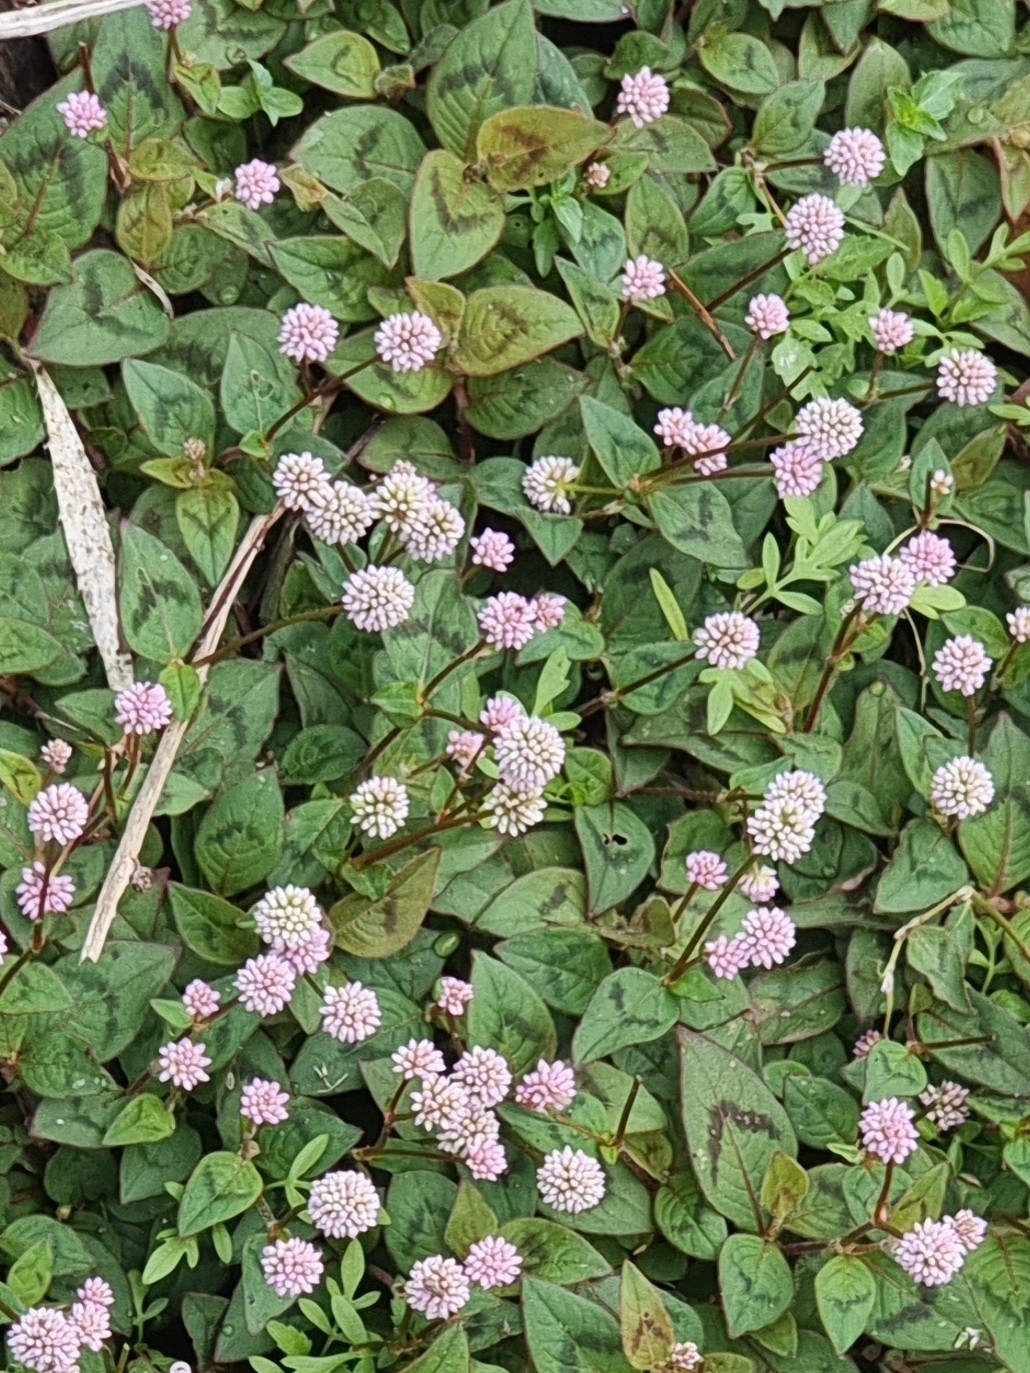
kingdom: Plantae
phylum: Tracheophyta
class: Magnoliopsida
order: Caryophyllales
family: Polygonaceae
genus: Persicaria
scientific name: Persicaria capitata
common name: Pinkhead smartweed
